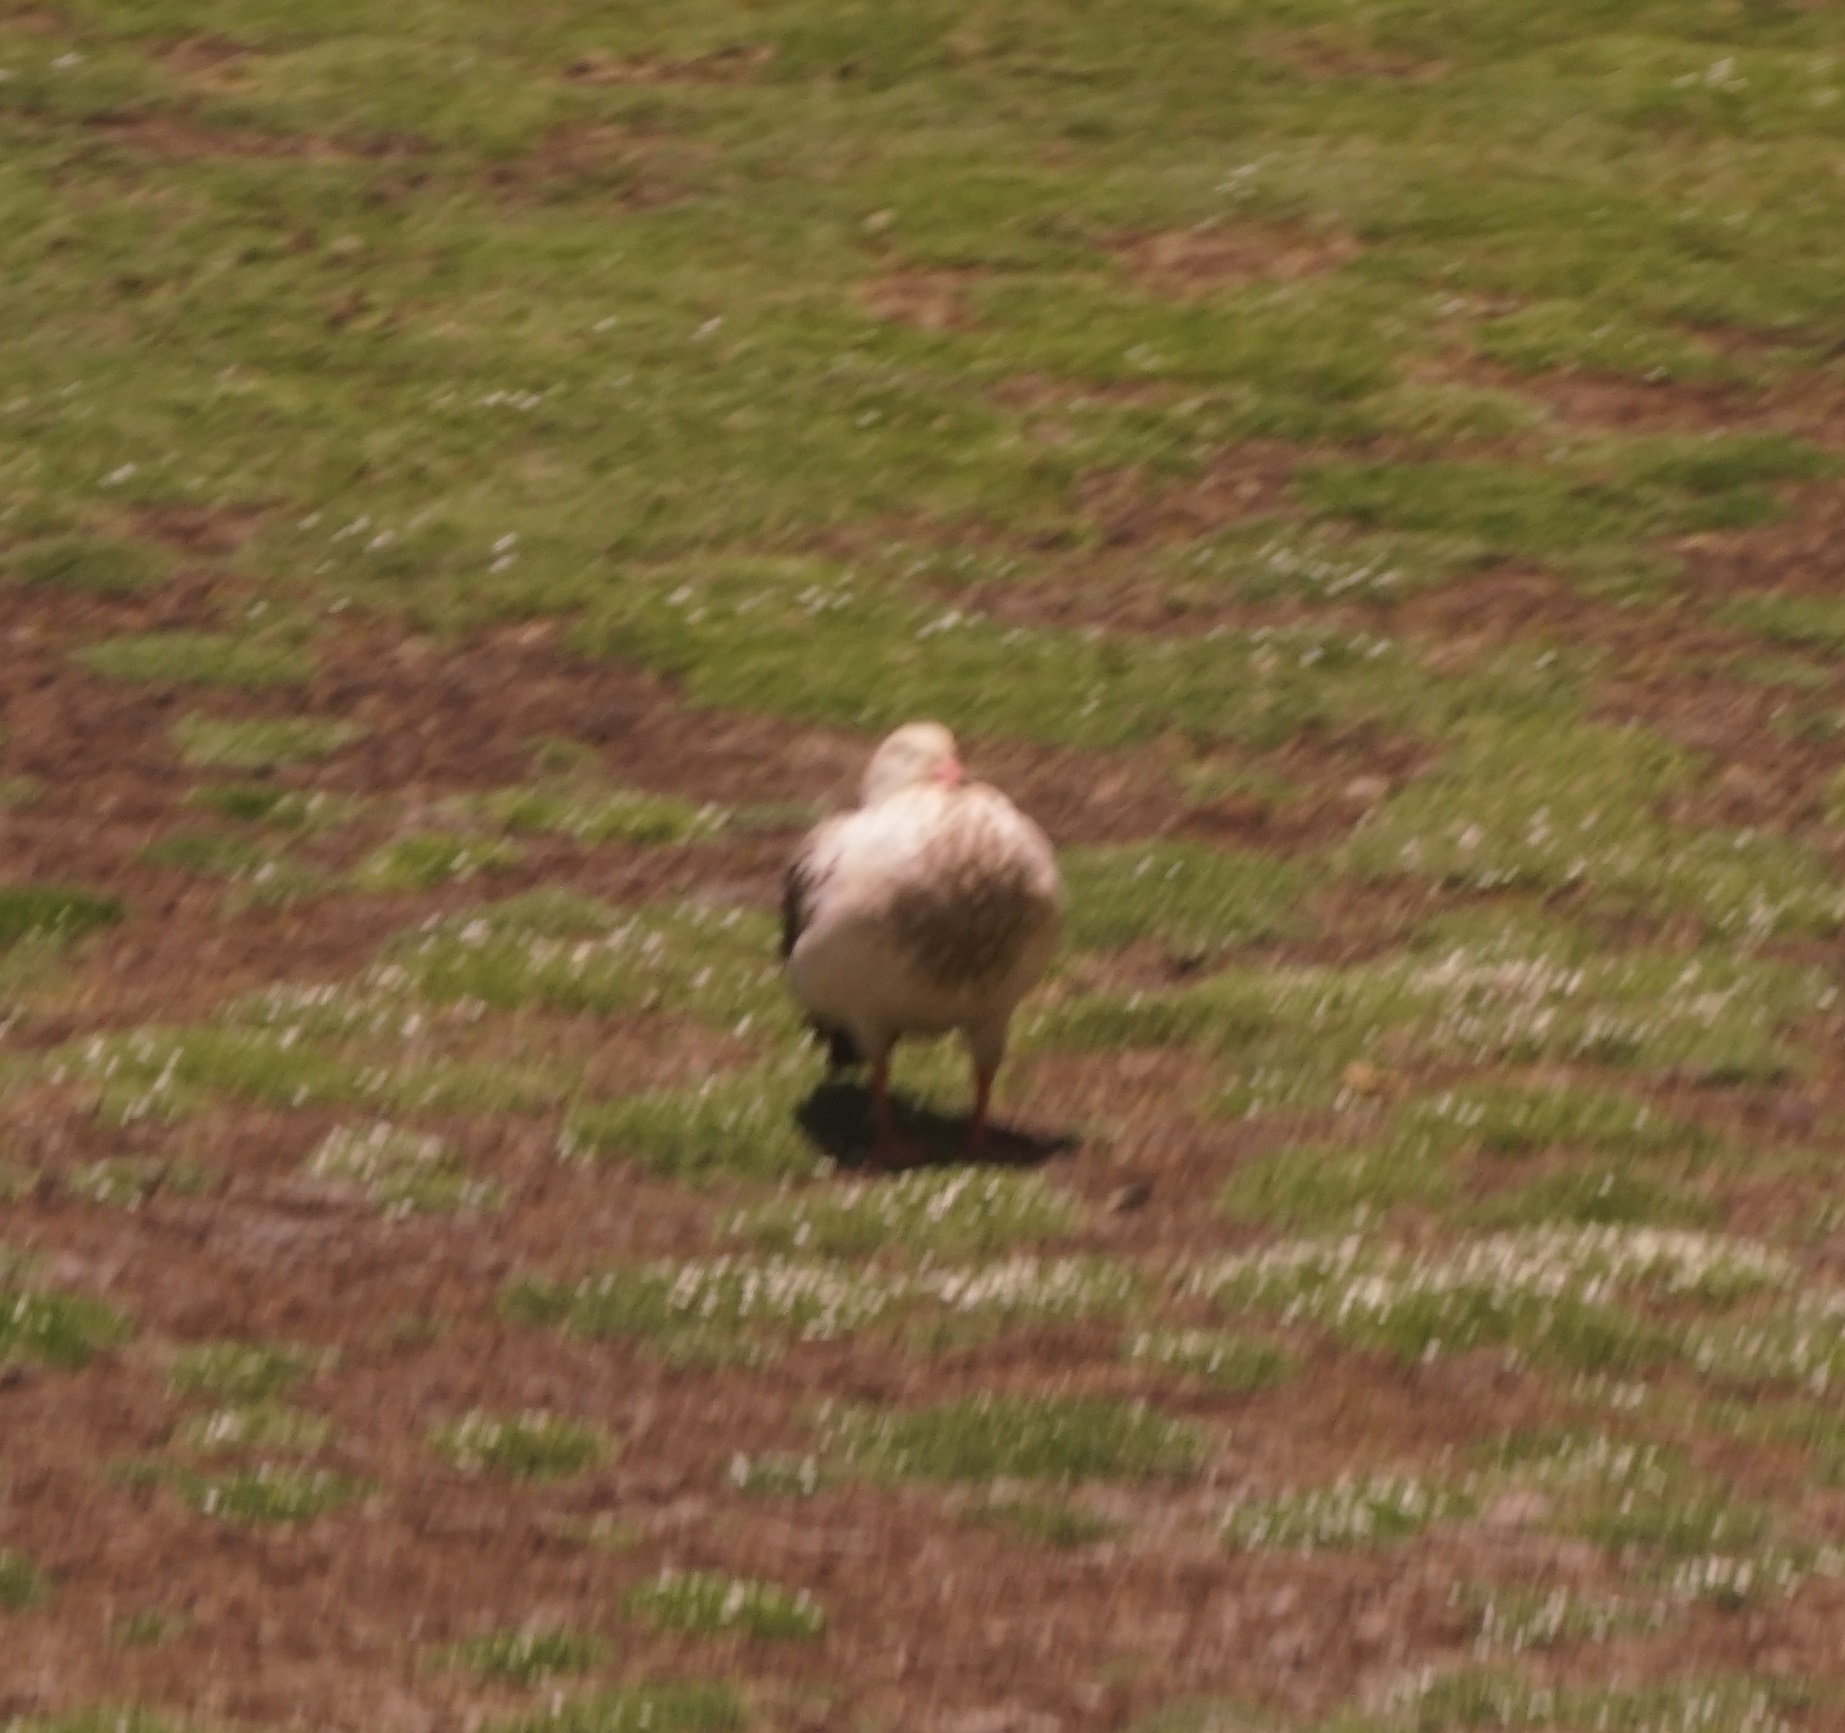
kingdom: Animalia
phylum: Chordata
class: Aves
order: Anseriformes
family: Anatidae
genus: Chloephaga
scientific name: Chloephaga melanoptera
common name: Andean goose
